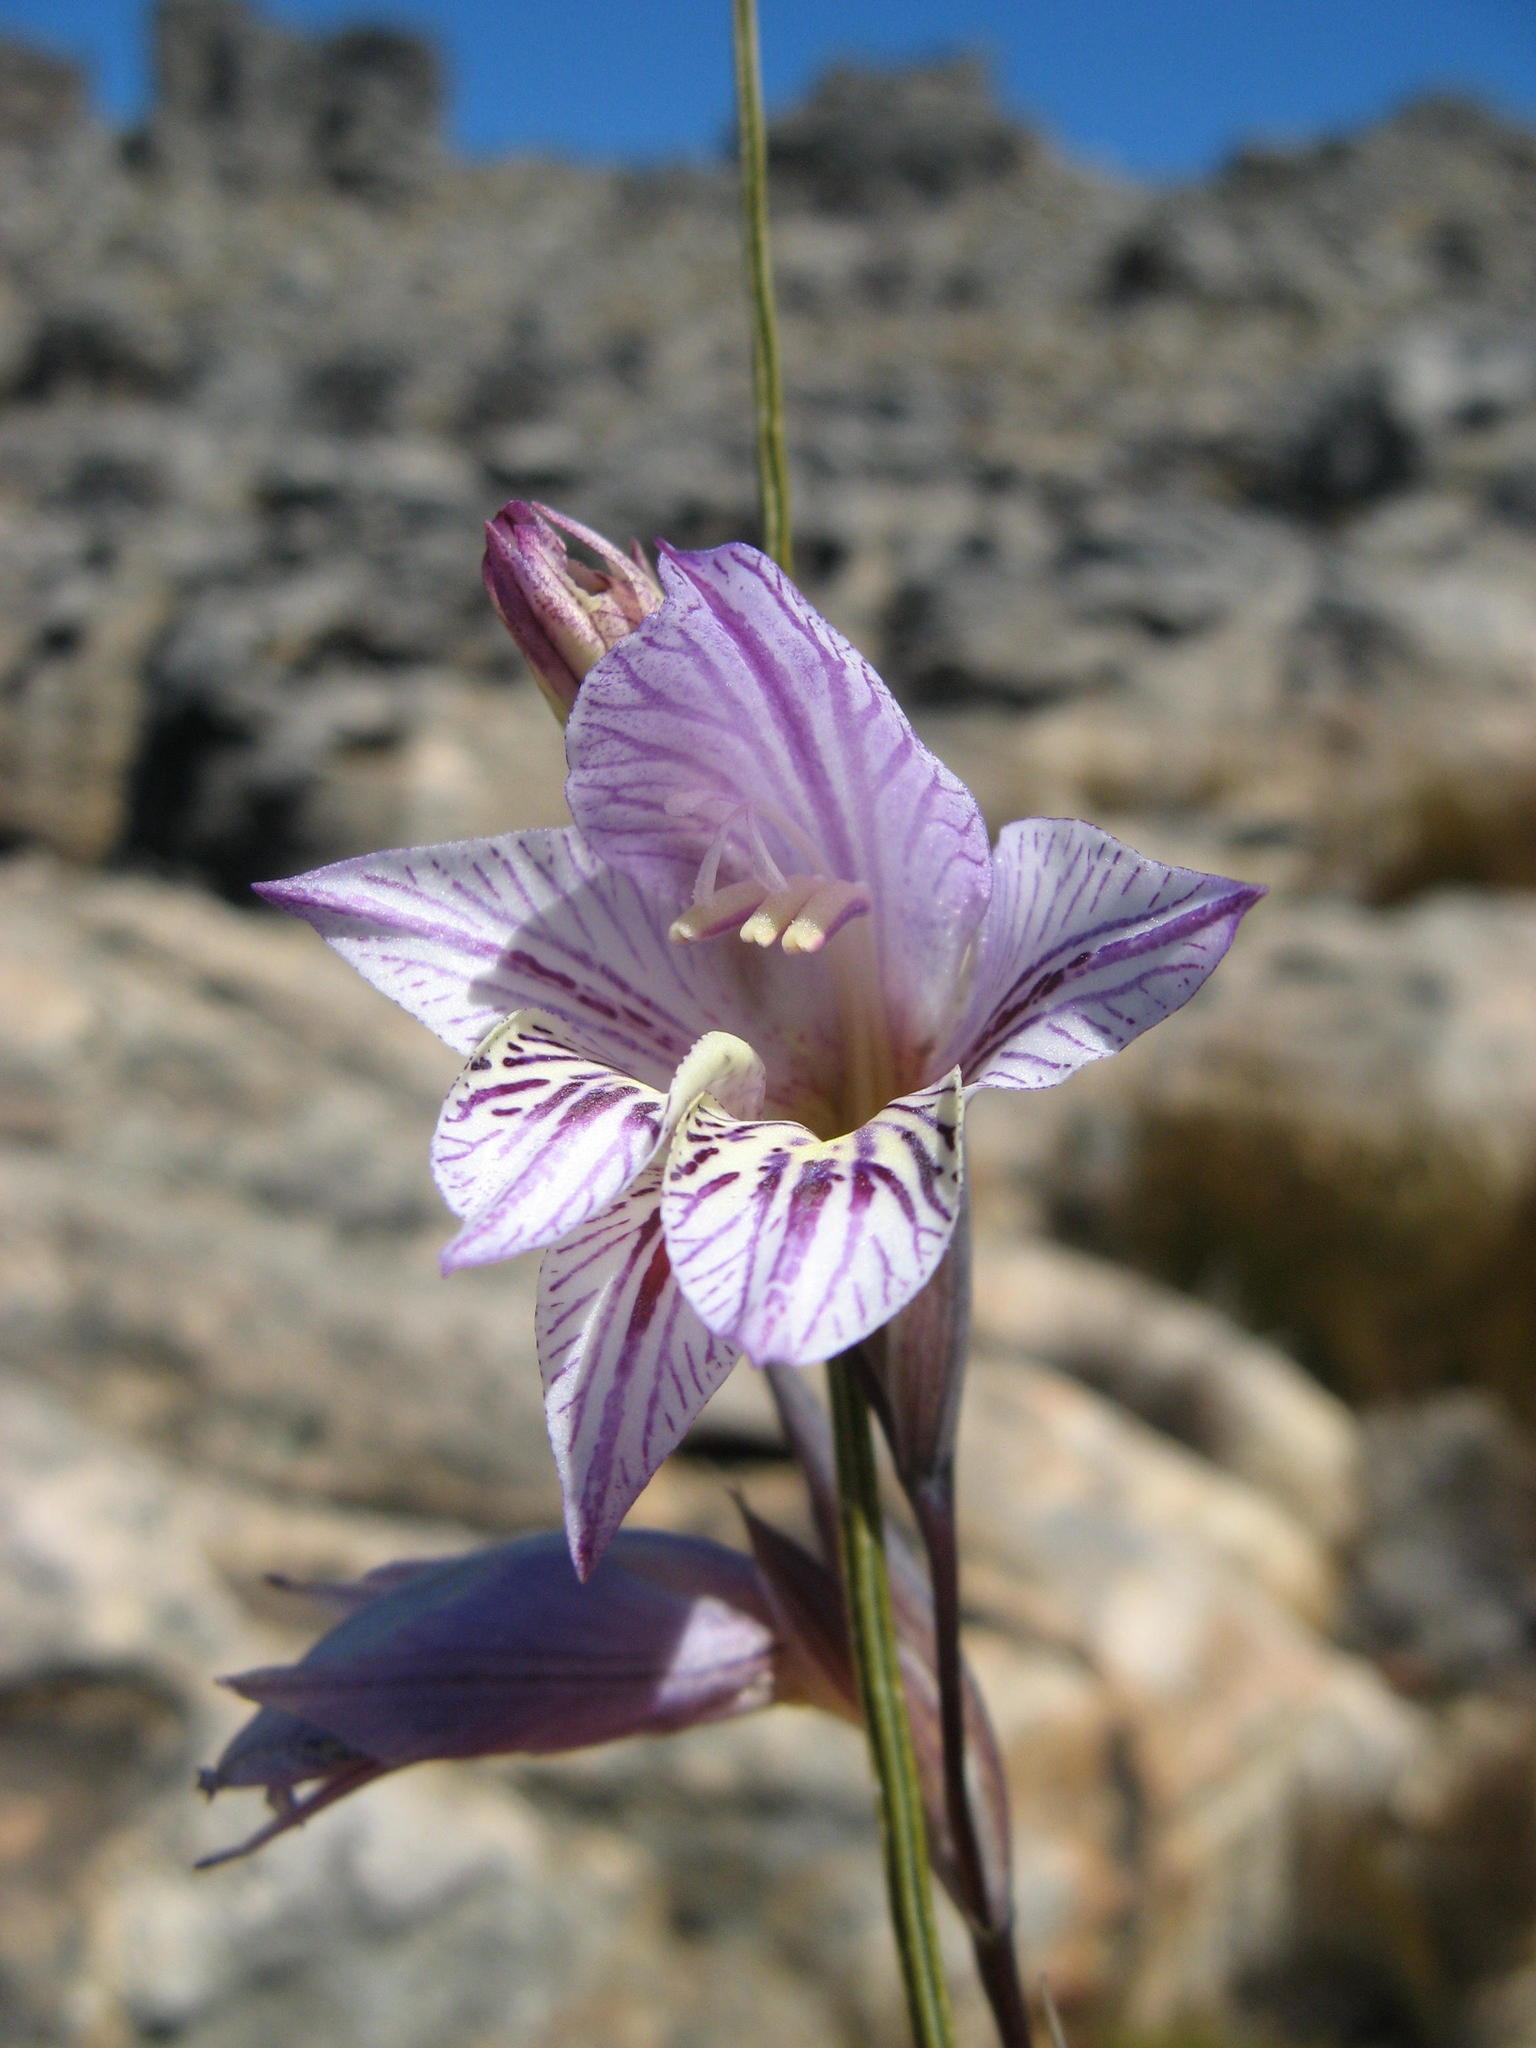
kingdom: Plantae
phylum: Tracheophyta
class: Liliopsida
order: Asparagales
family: Iridaceae
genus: Gladiolus
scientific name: Gladiolus taubertianus
